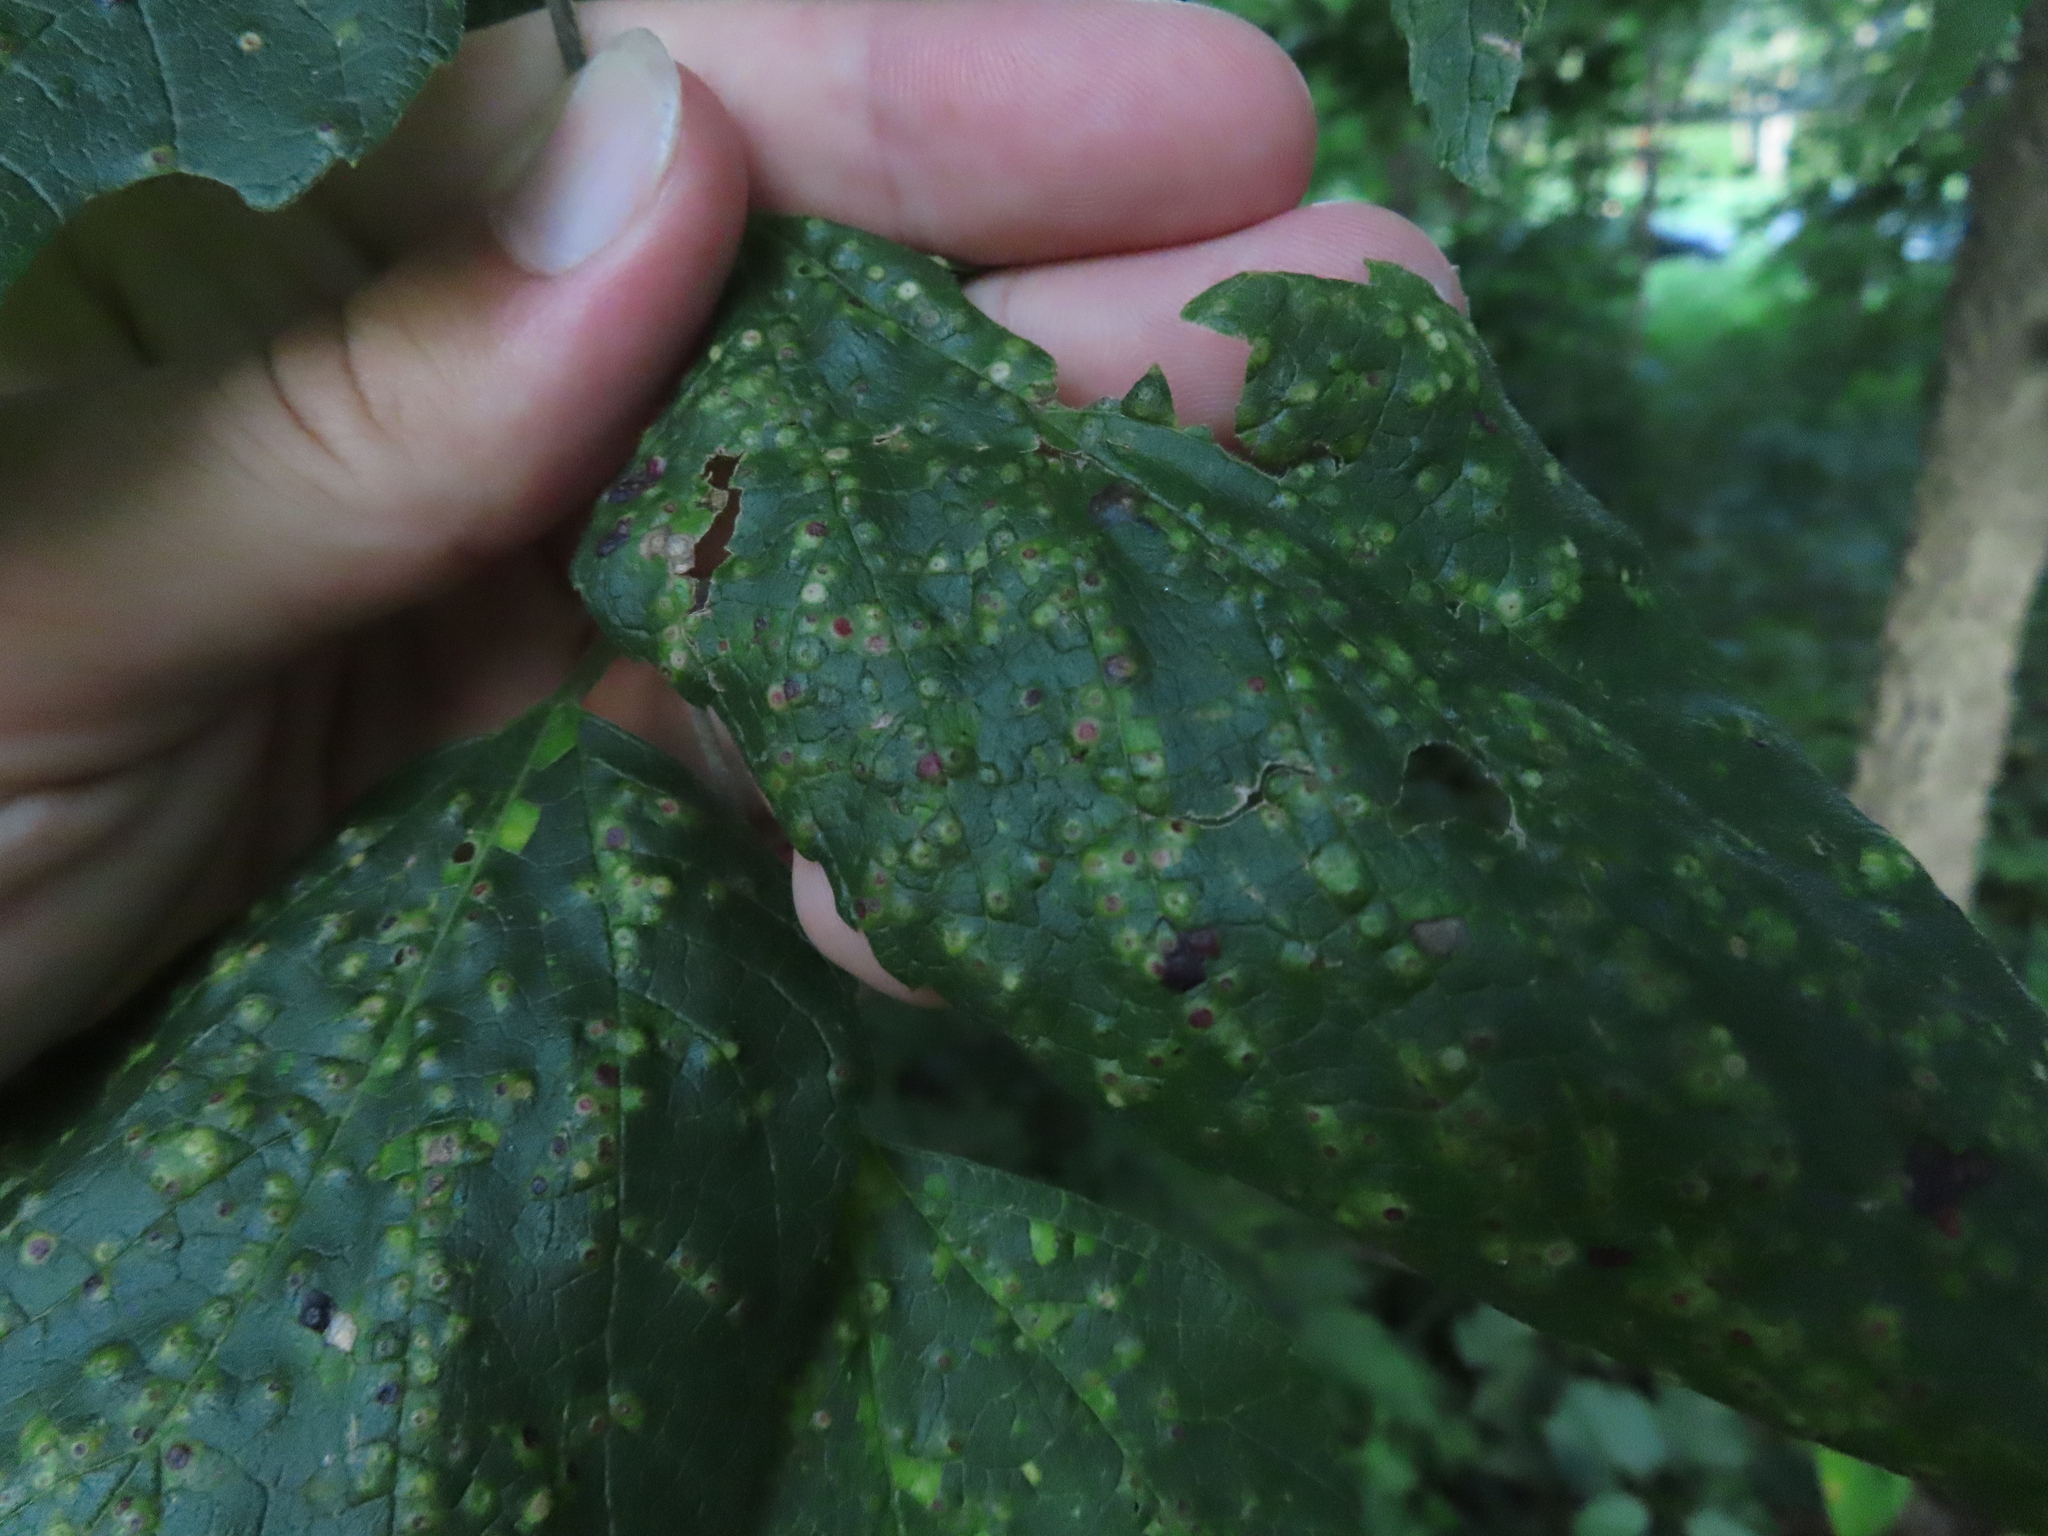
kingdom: Animalia
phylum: Arthropoda
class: Insecta
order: Hemiptera
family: Aphalaridae
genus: Pachypsylla
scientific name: Pachypsylla celtidisvesicula
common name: Hackberry blister gall psyllid
